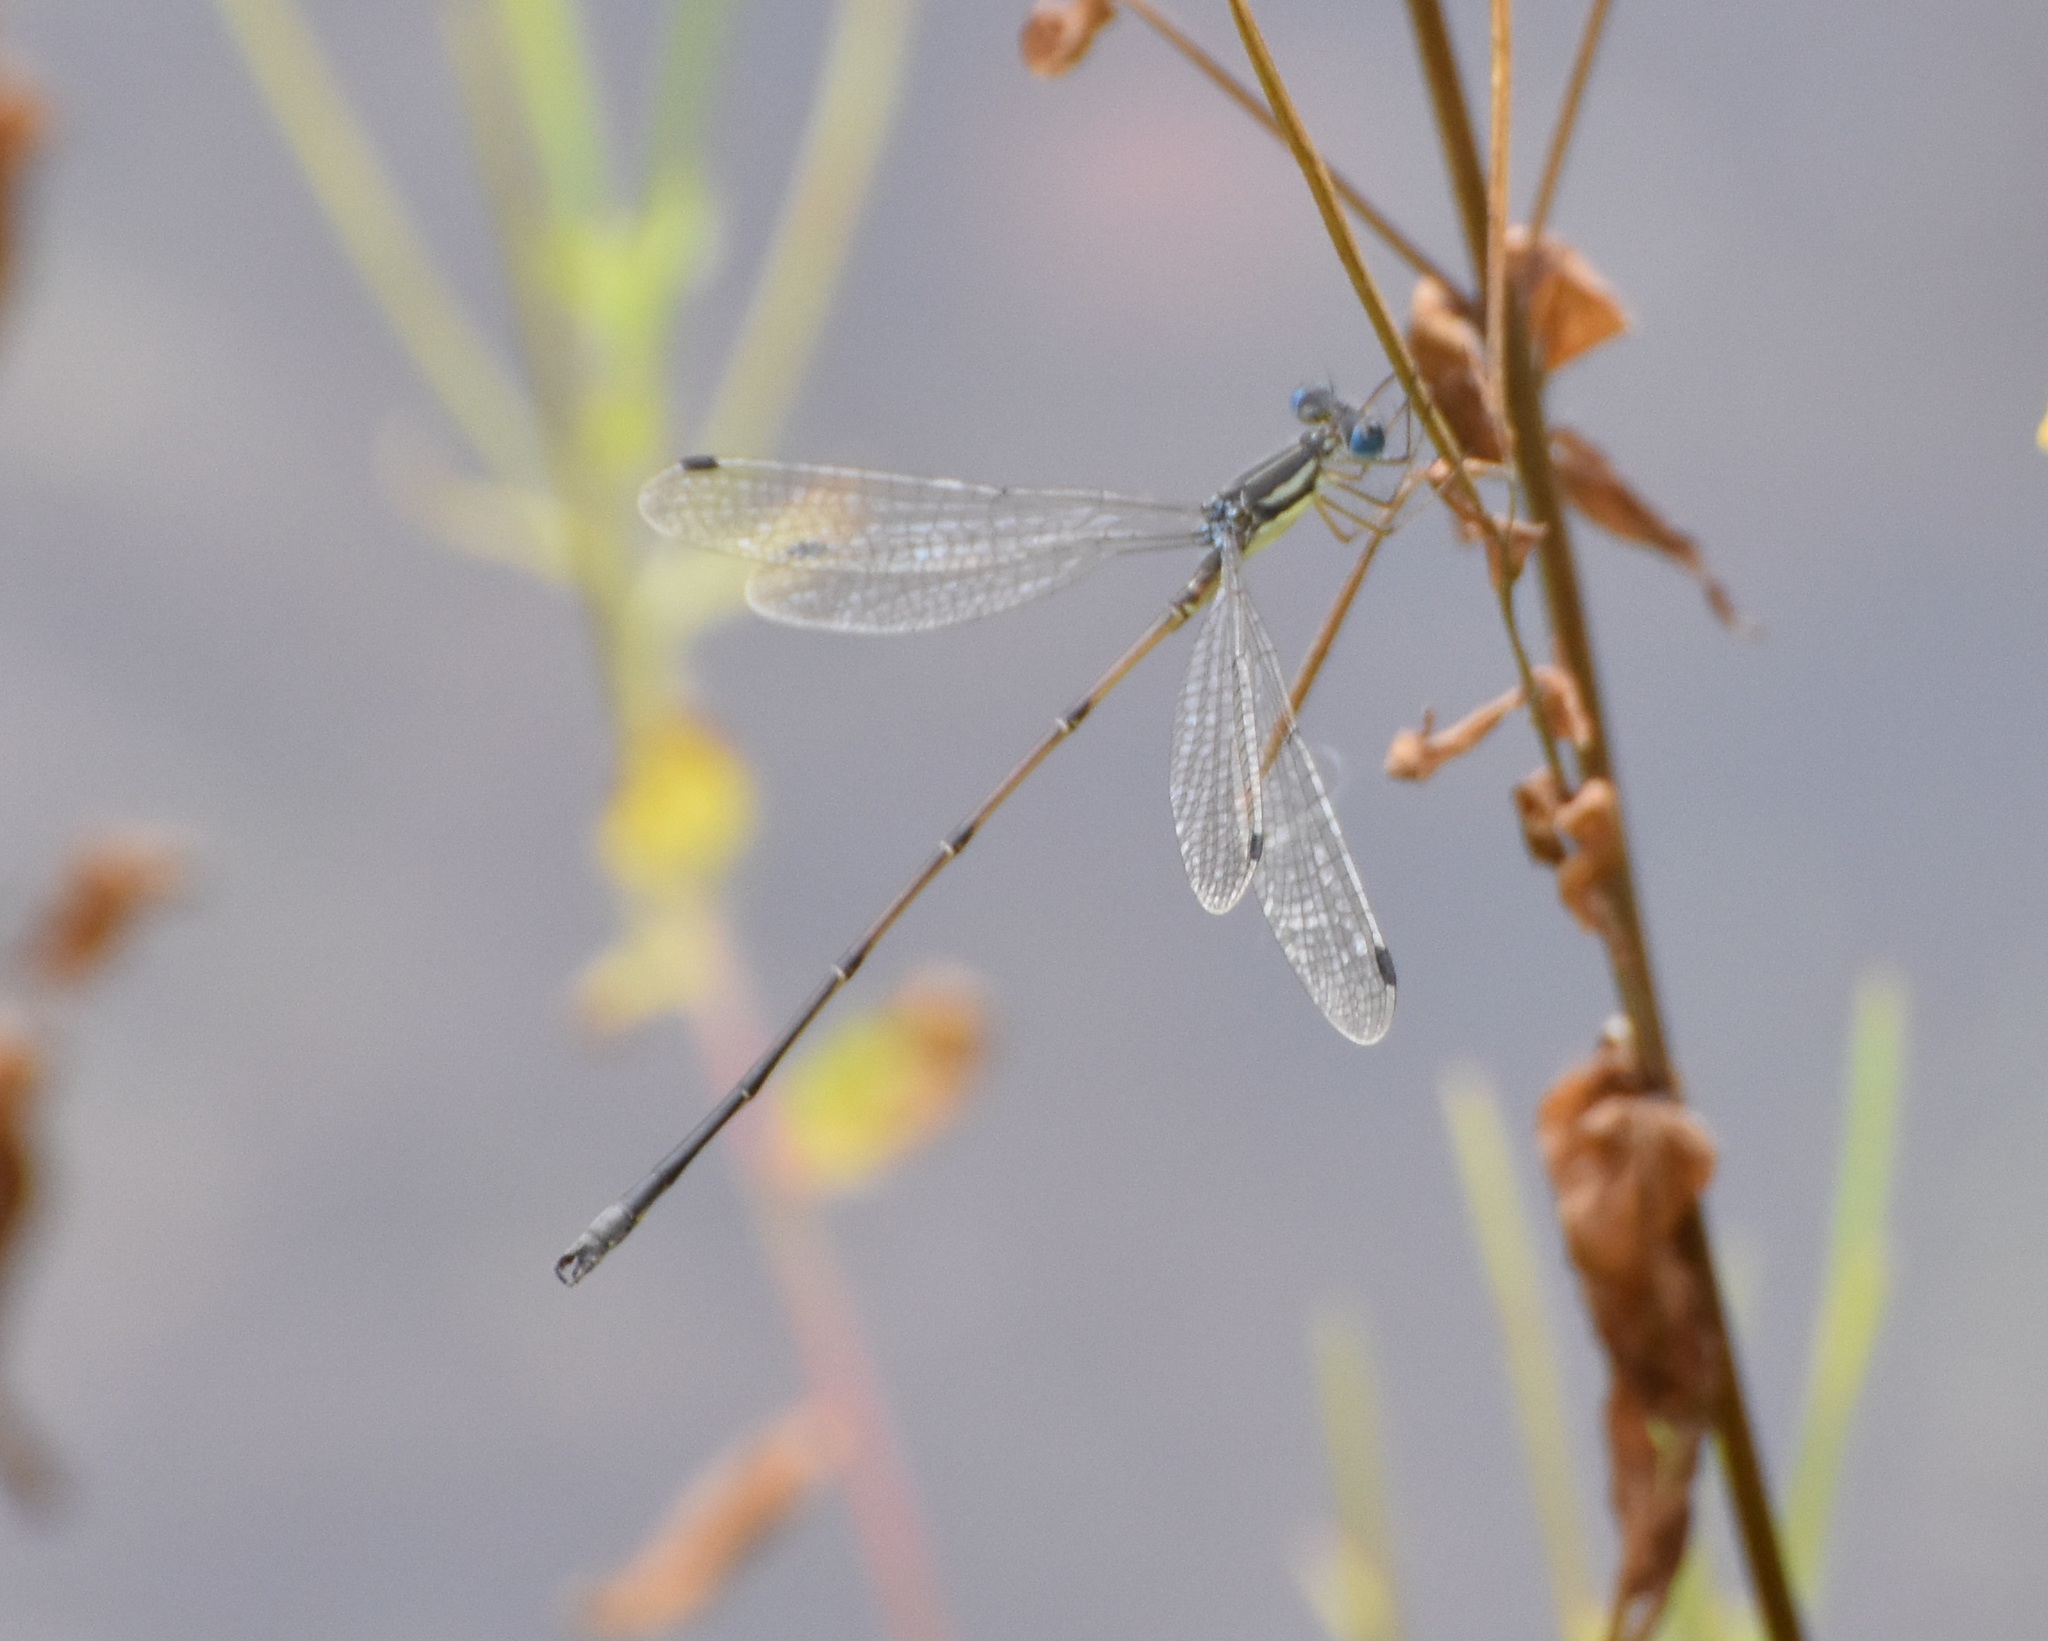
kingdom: Animalia
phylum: Arthropoda
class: Insecta
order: Odonata
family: Lestidae
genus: Lestes
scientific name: Lestes rectangularis
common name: Slender spreadwing
